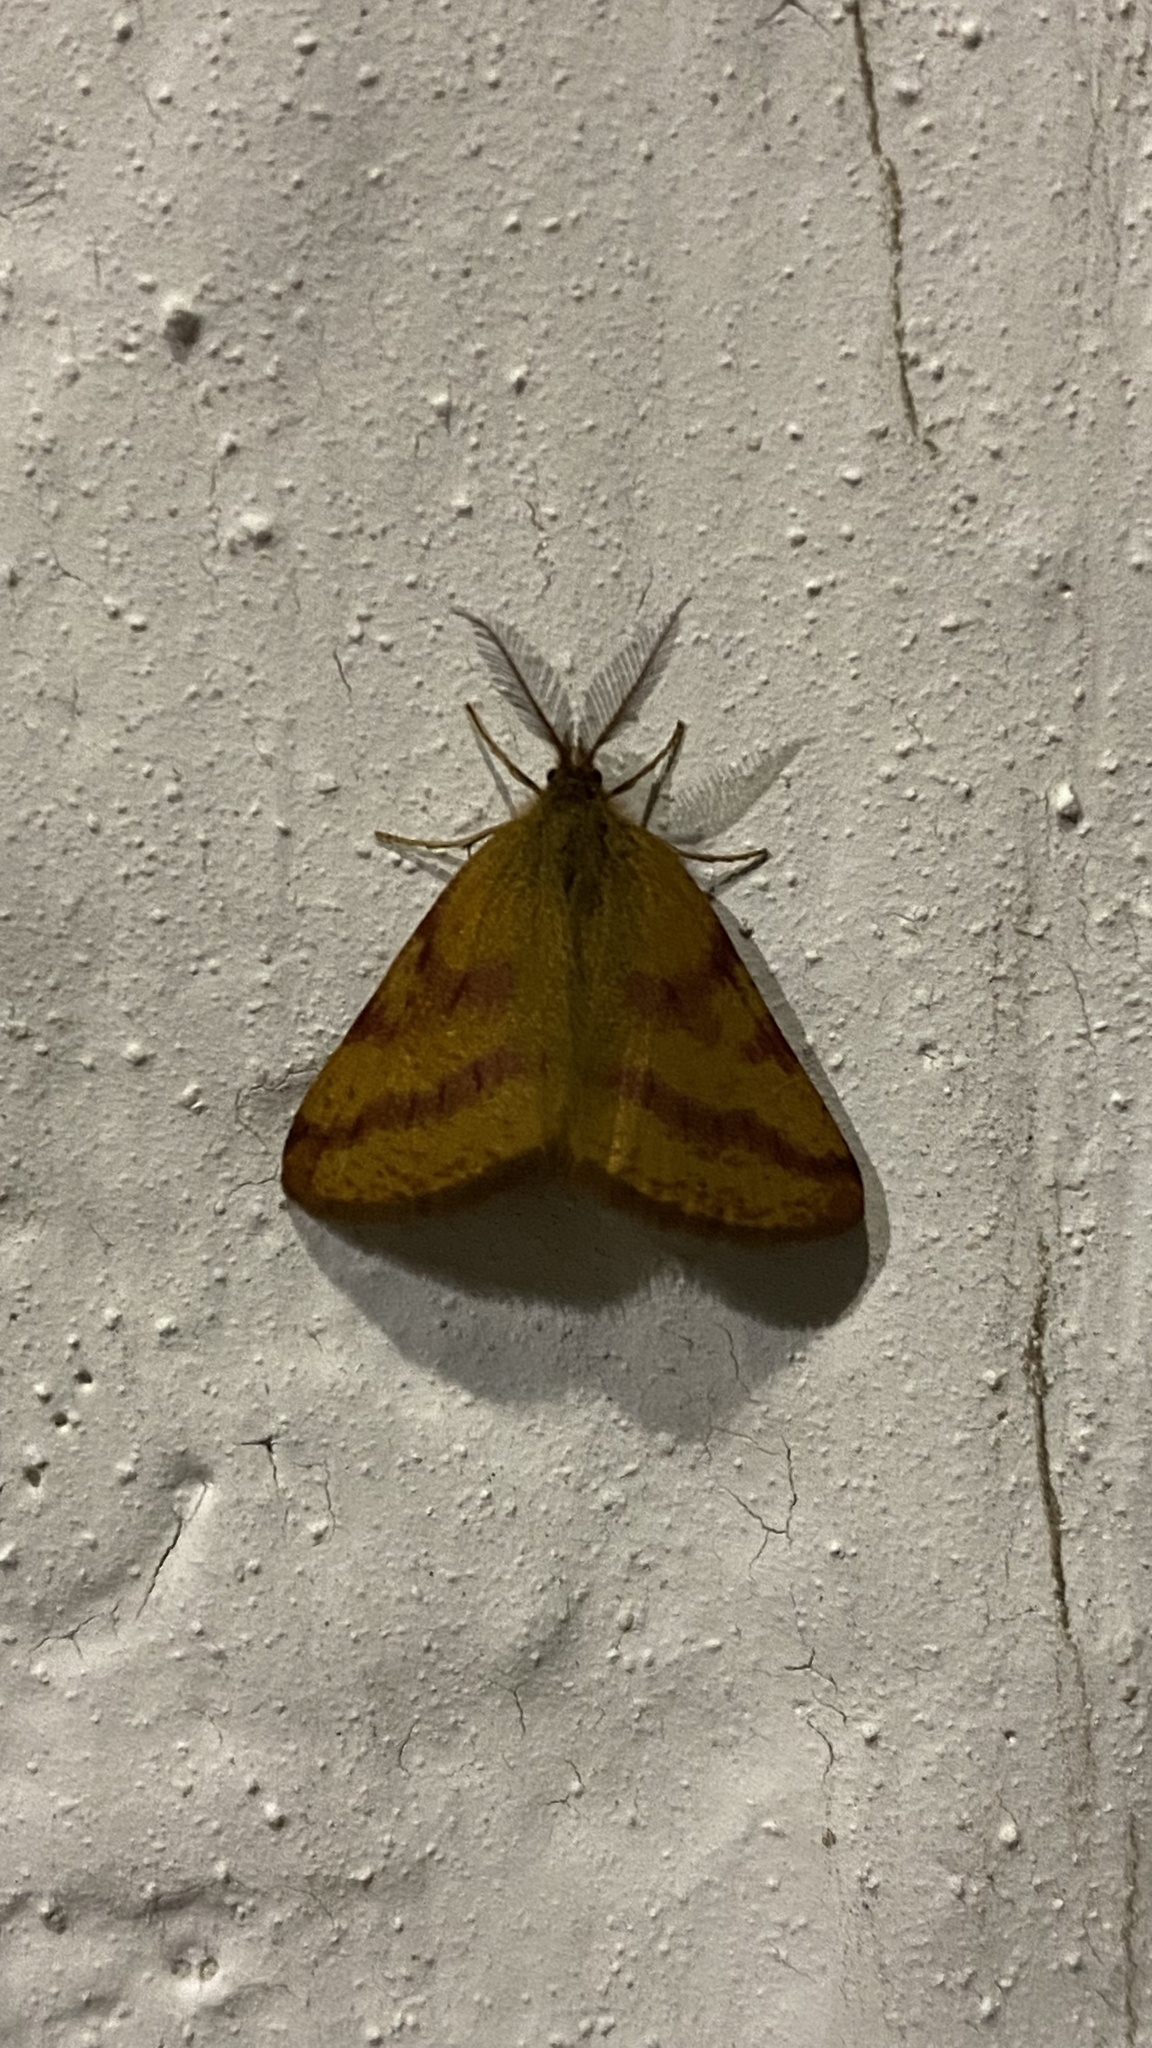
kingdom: Animalia
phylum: Arthropoda
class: Insecta
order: Lepidoptera
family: Geometridae
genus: Lythria
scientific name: Lythria purpuraria
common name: Purple-barred yellow
